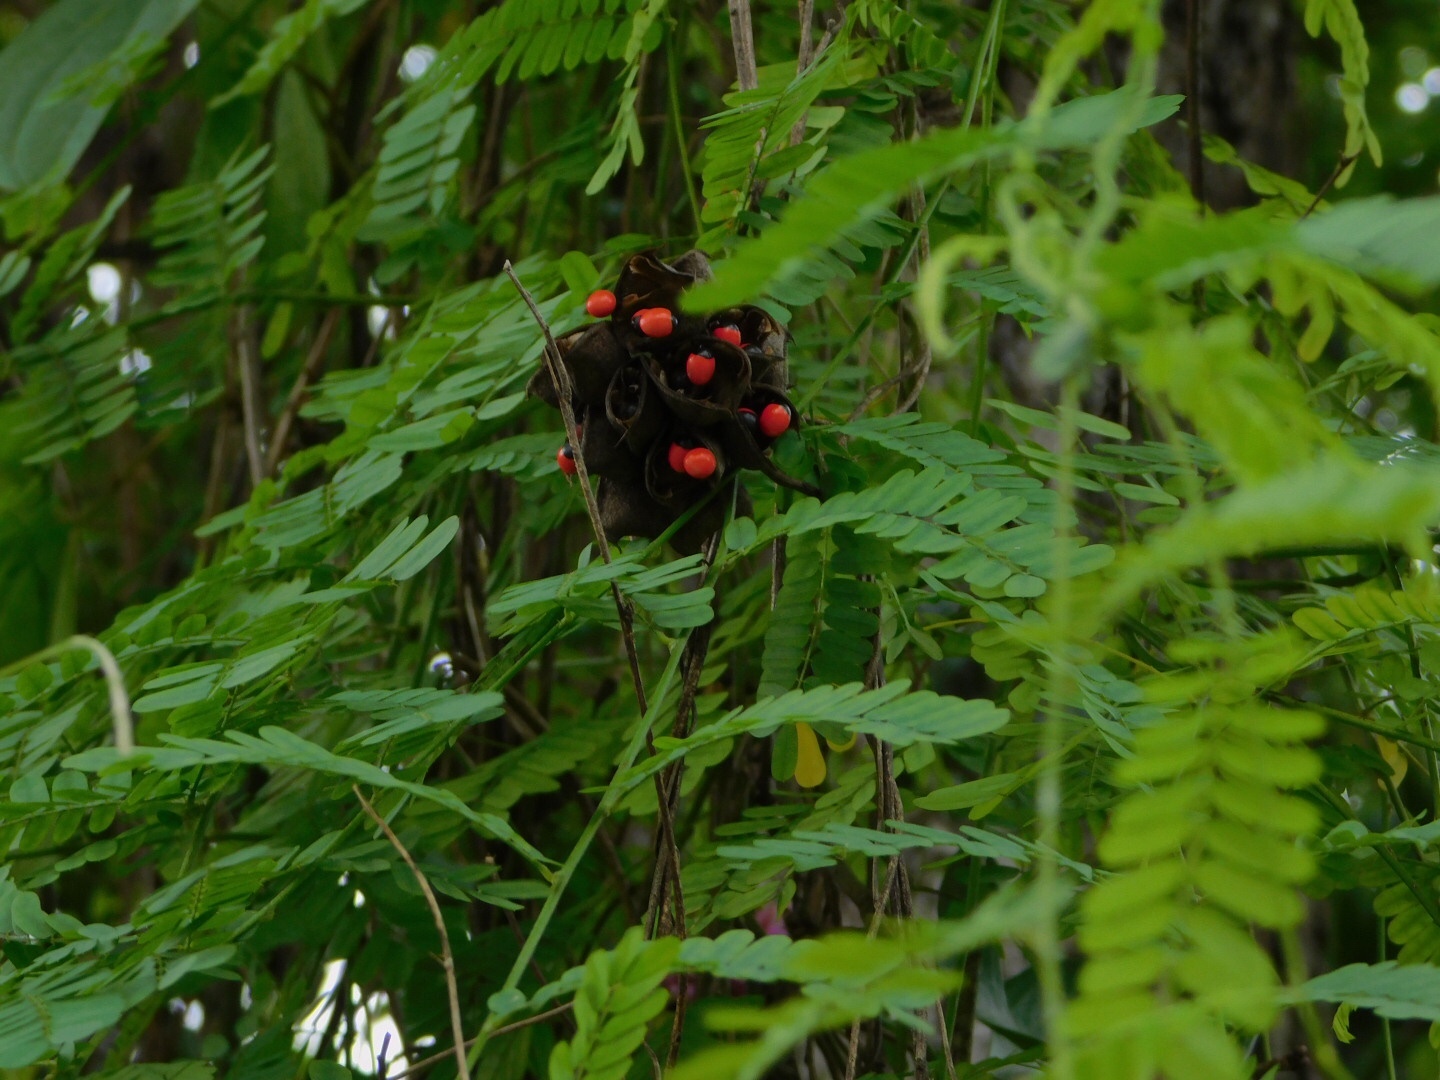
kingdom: Plantae
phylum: Tracheophyta
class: Magnoliopsida
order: Fabales
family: Fabaceae
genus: Abrus
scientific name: Abrus precatorius
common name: Rosarypea
